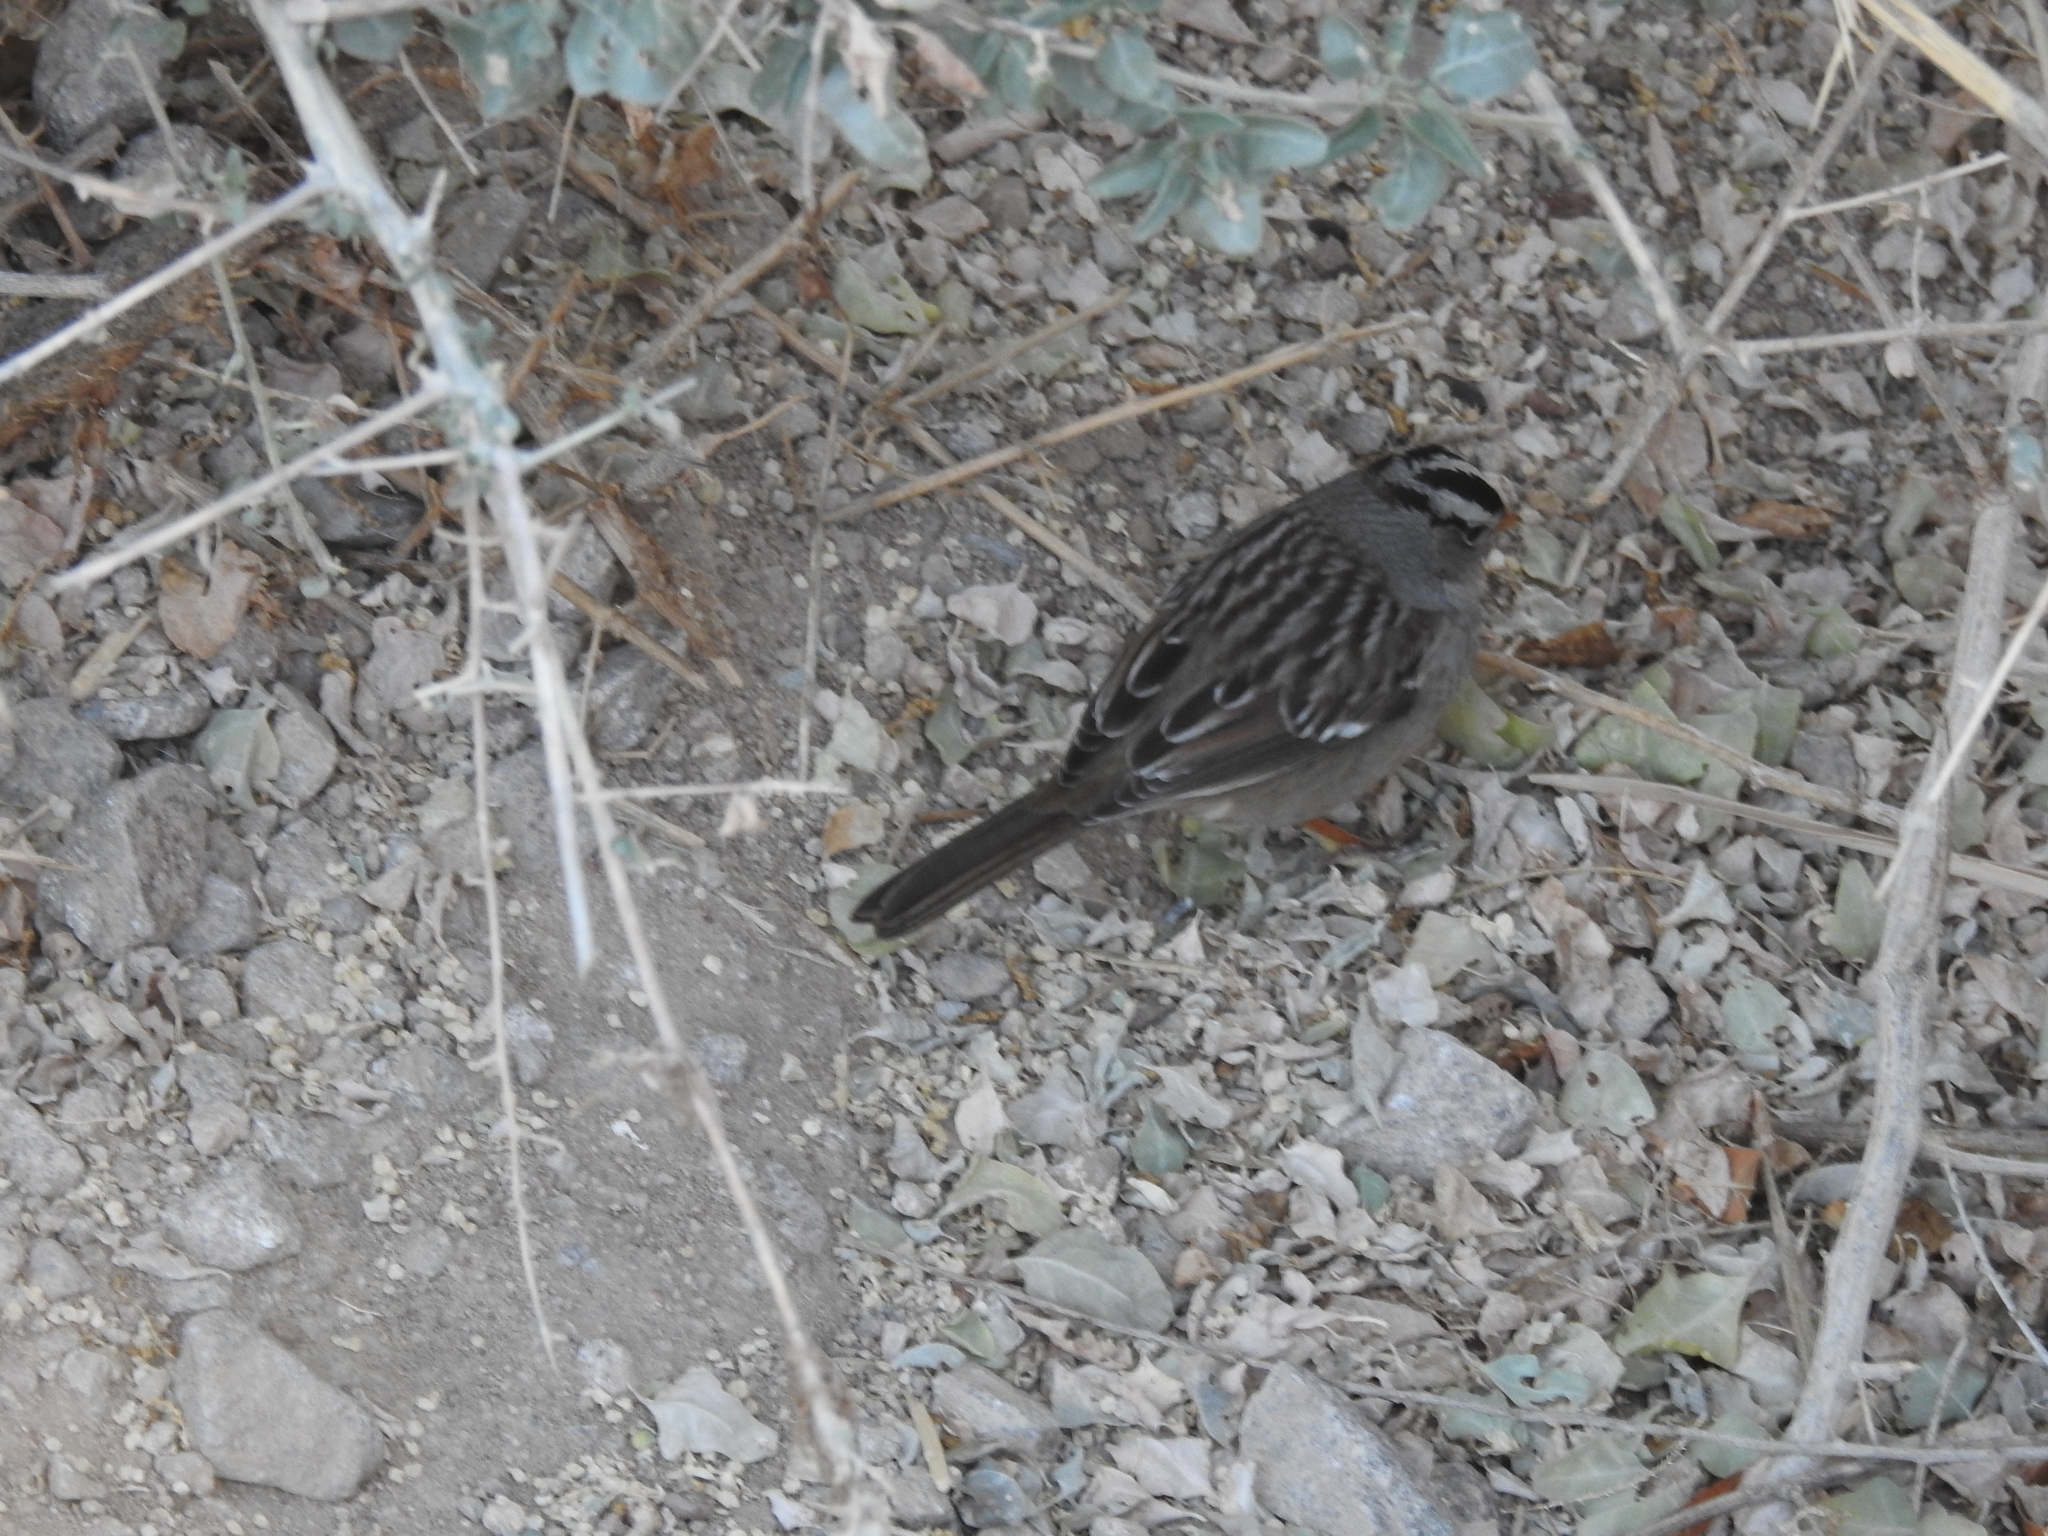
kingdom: Animalia
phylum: Chordata
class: Aves
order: Passeriformes
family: Passerellidae
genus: Zonotrichia
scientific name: Zonotrichia leucophrys
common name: White-crowned sparrow
